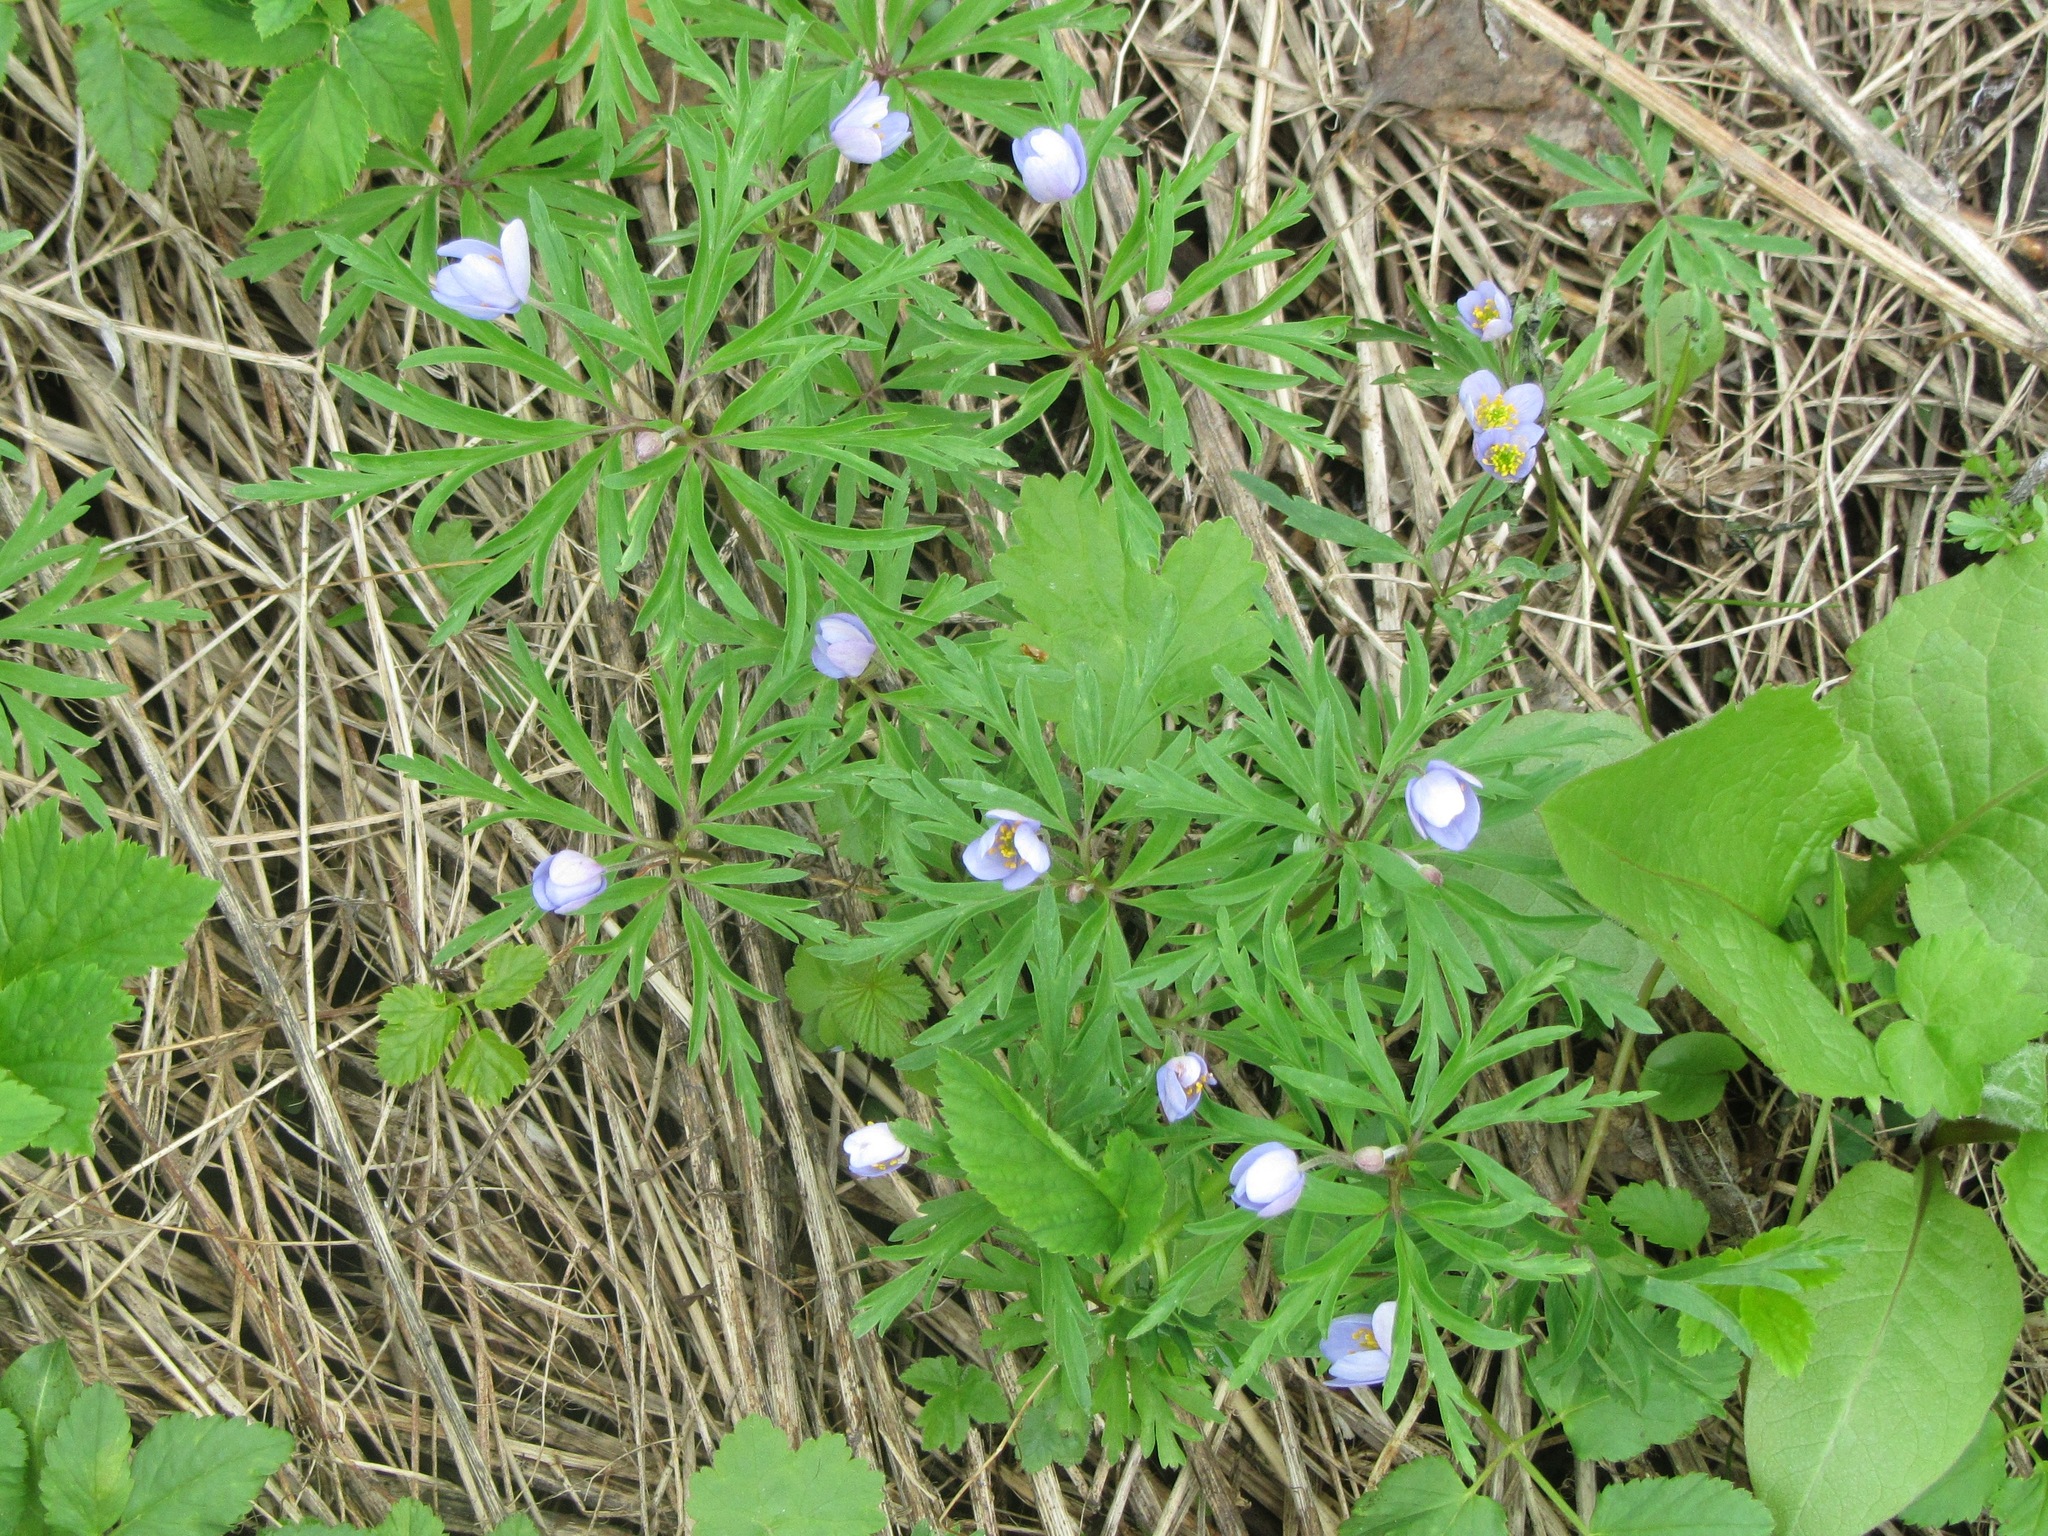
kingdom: Plantae
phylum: Tracheophyta
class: Magnoliopsida
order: Ranunculales
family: Ranunculaceae
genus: Anemone
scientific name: Anemone caerulea
